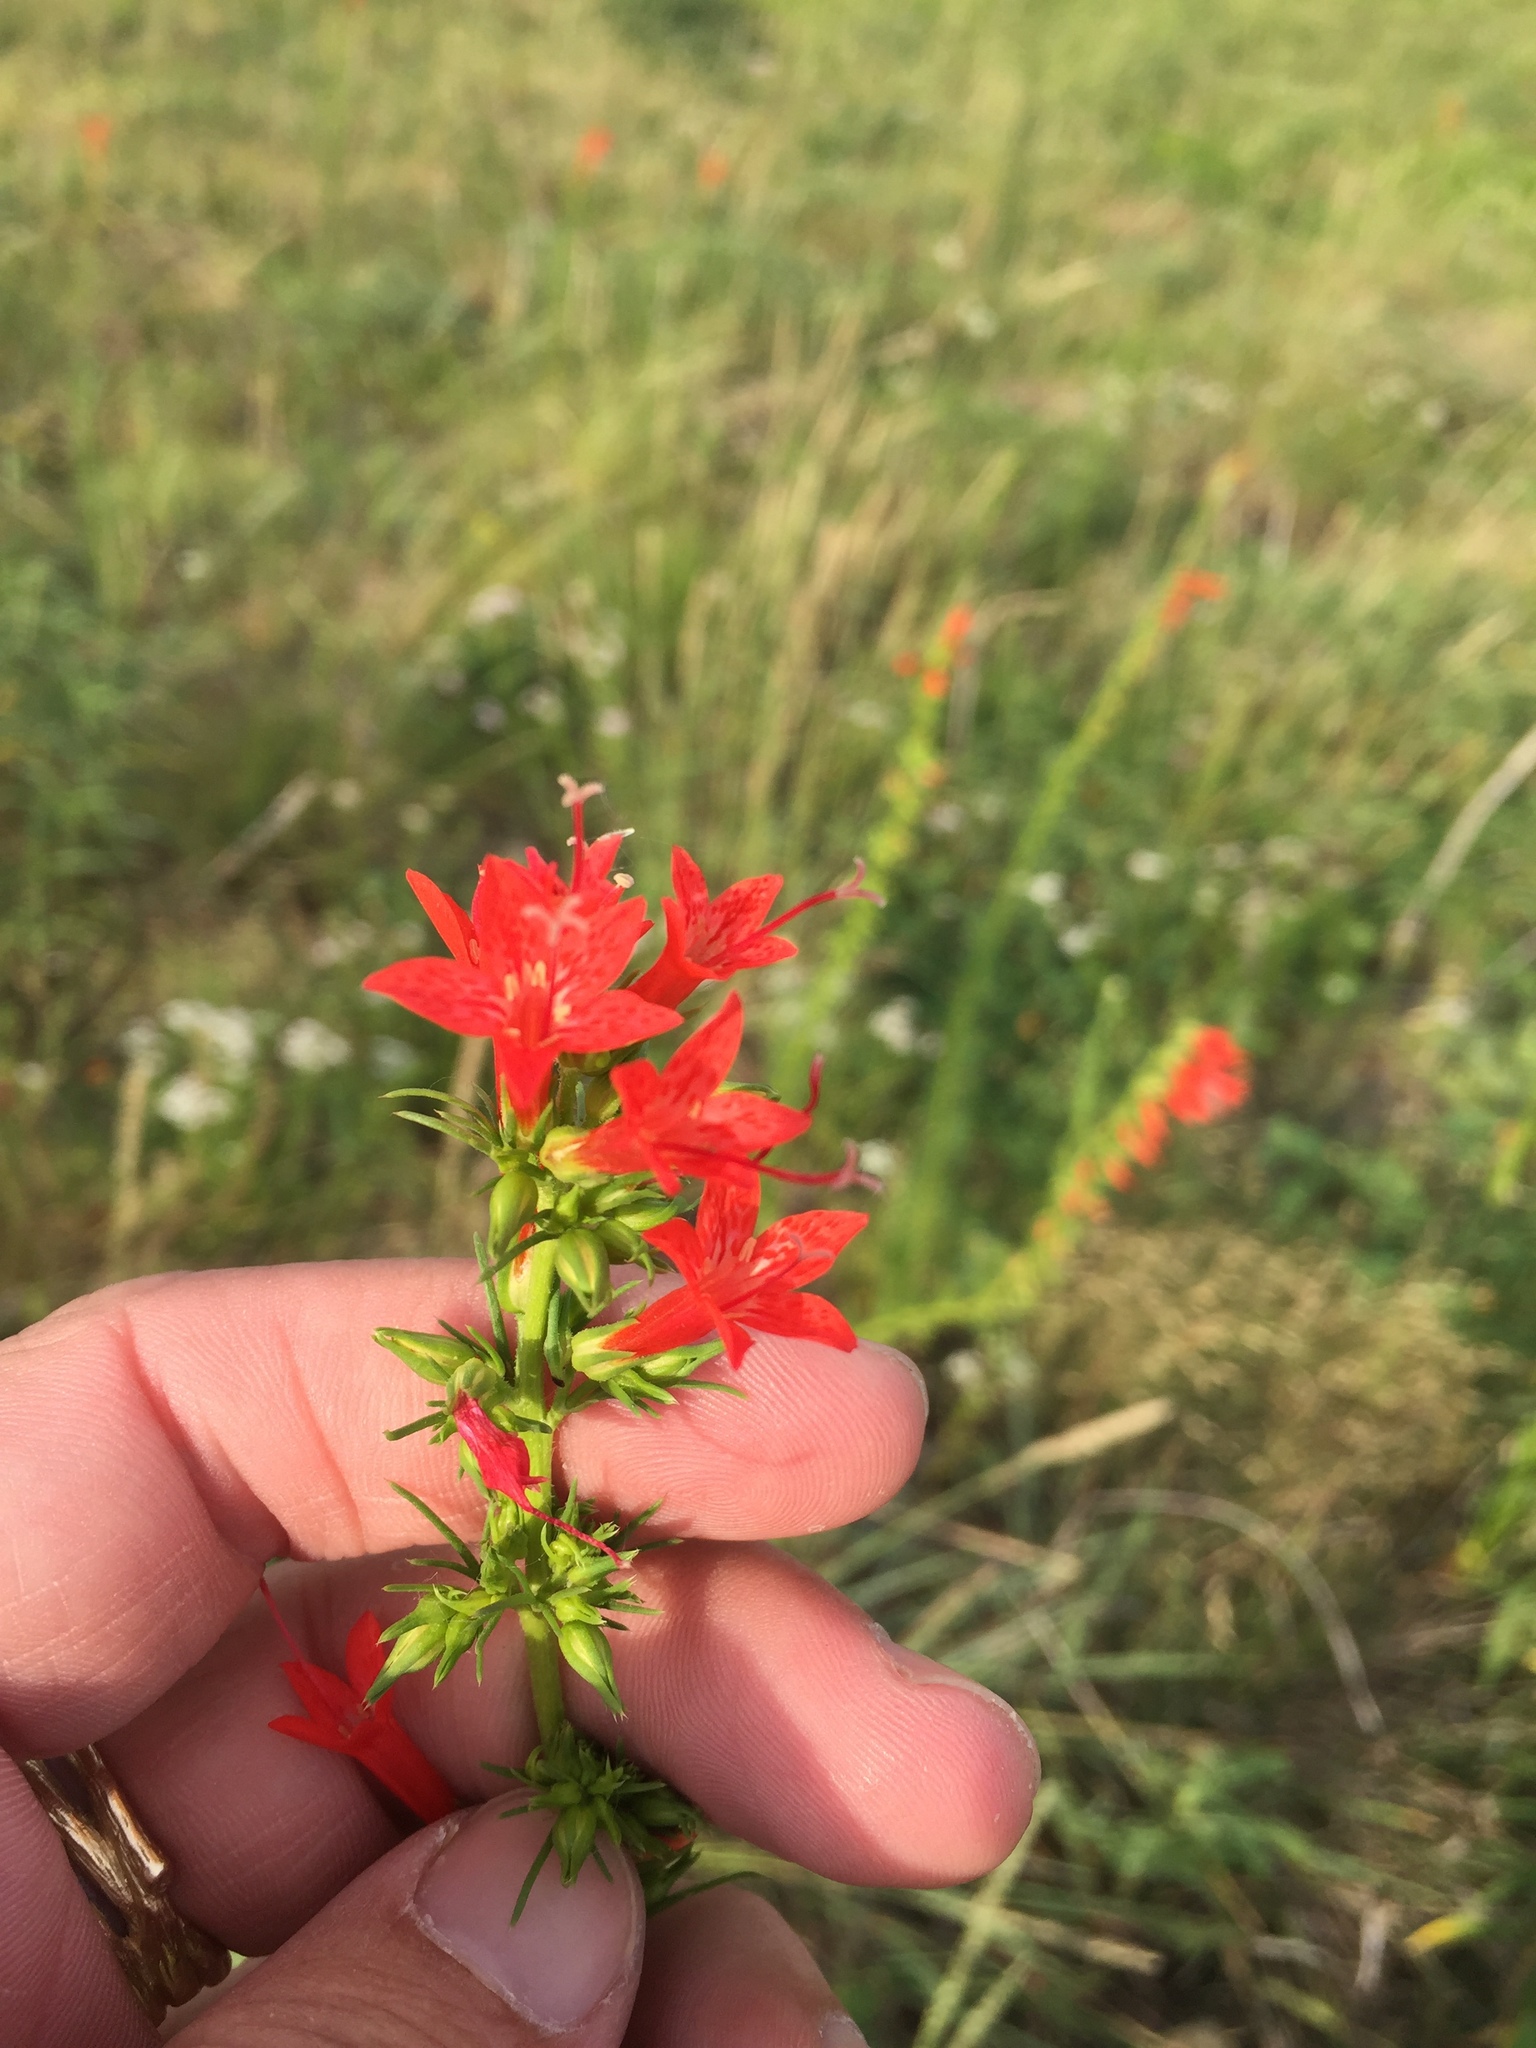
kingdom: Plantae
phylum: Tracheophyta
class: Magnoliopsida
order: Ericales
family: Polemoniaceae
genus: Ipomopsis
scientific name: Ipomopsis rubra
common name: Skyrocket
